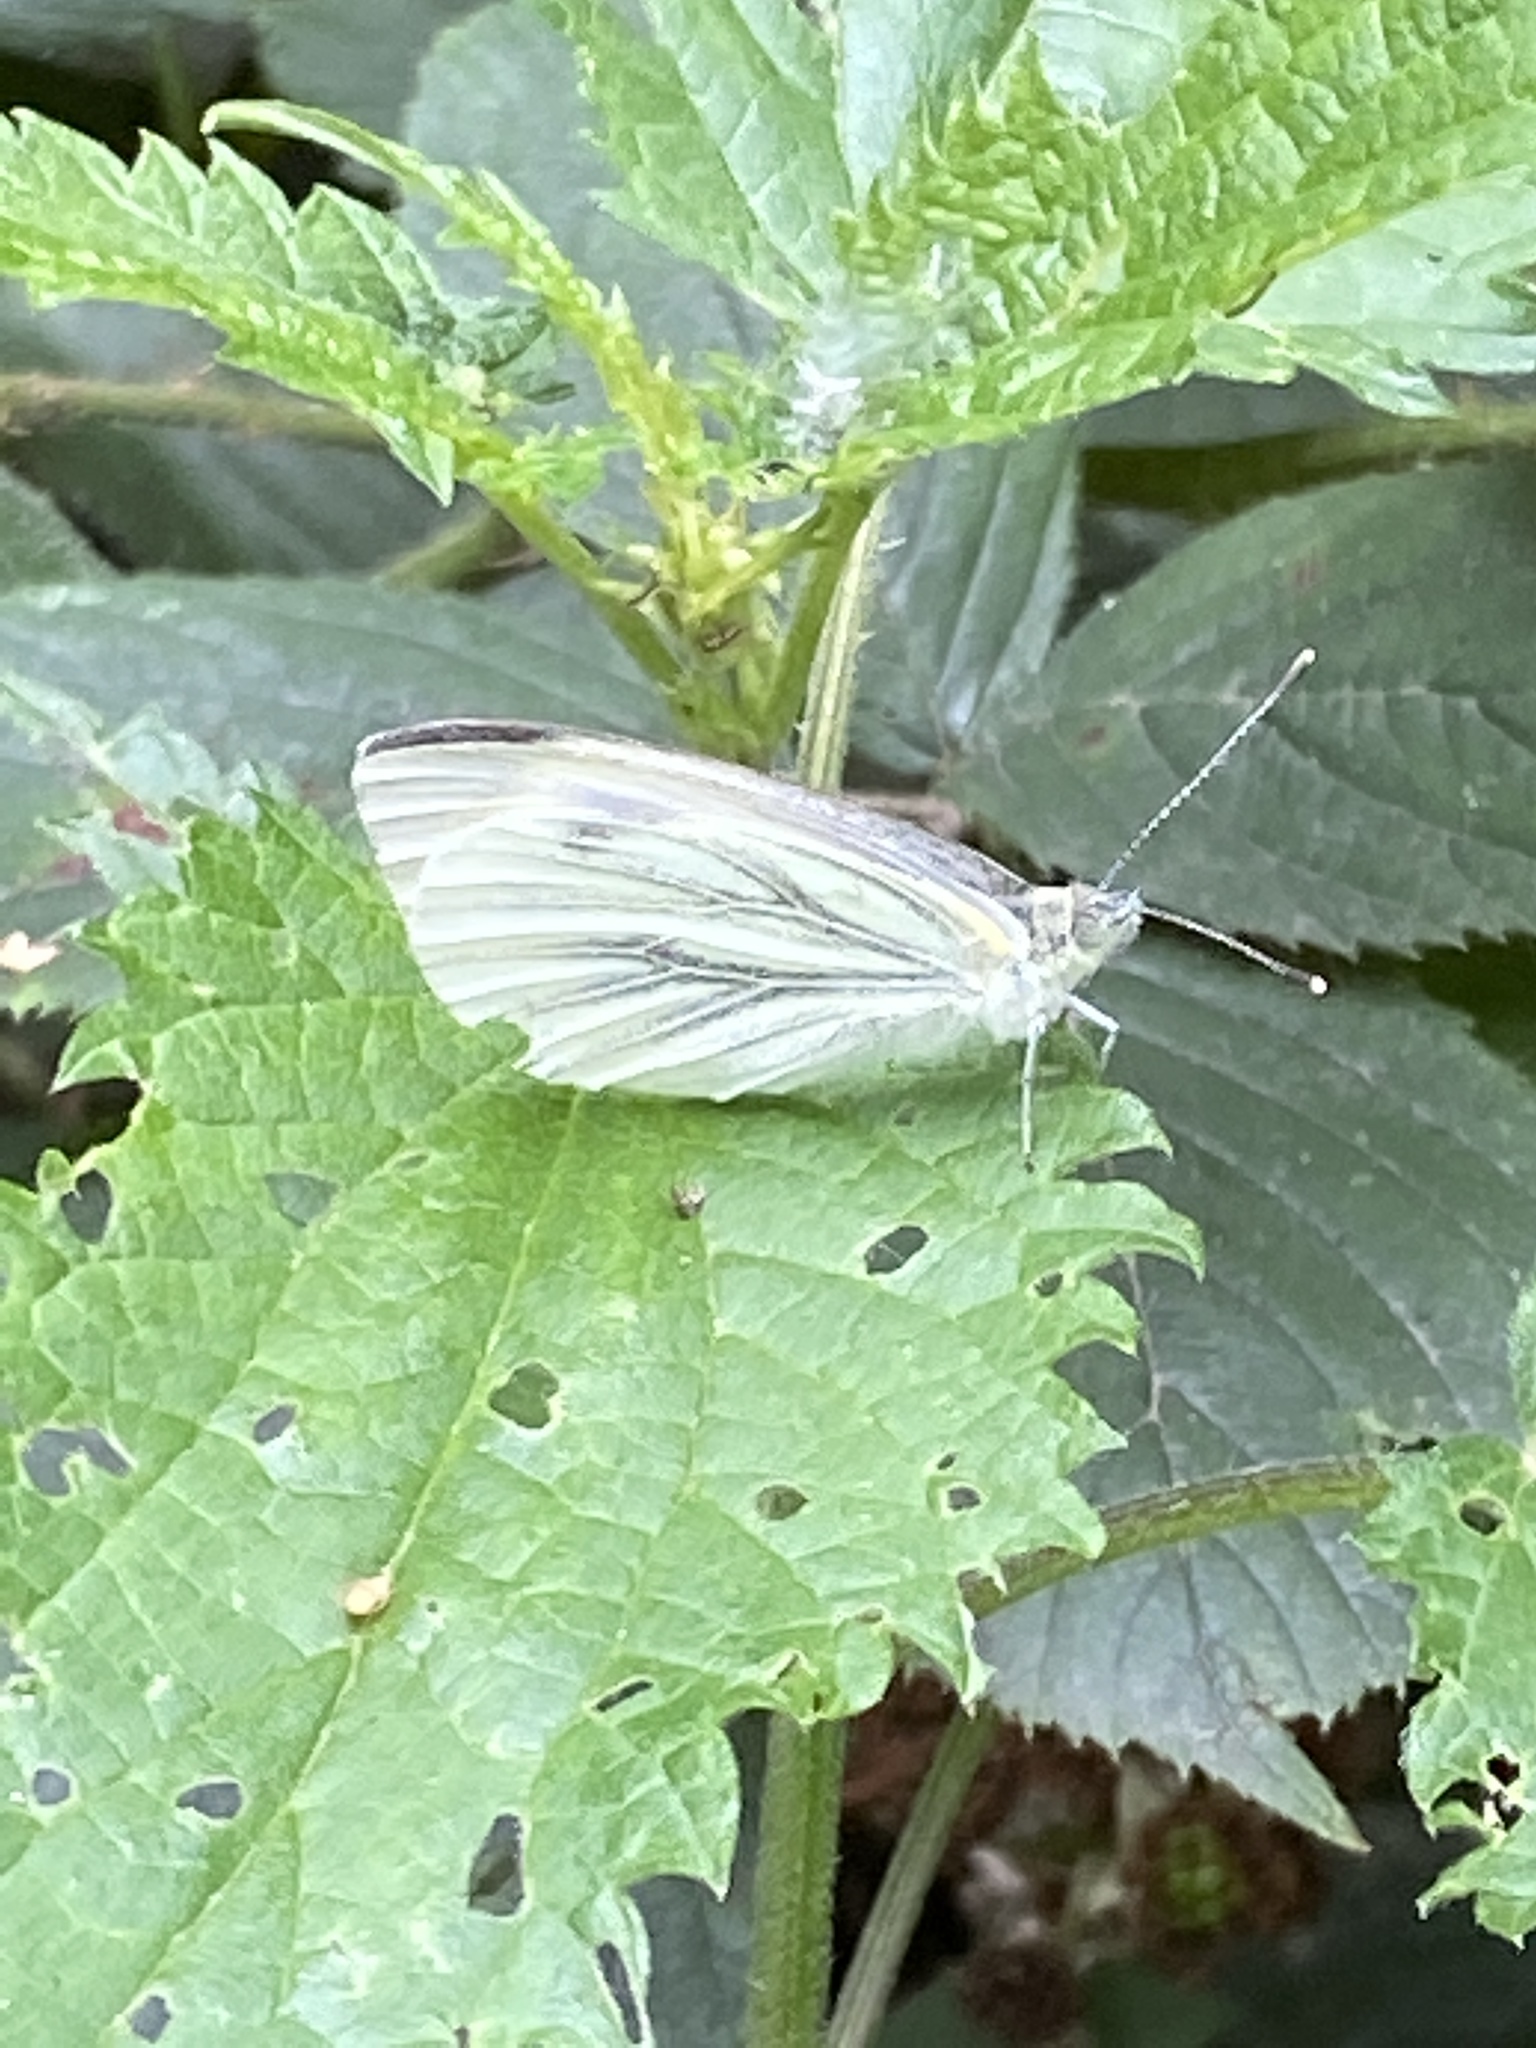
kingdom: Animalia
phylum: Arthropoda
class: Insecta
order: Lepidoptera
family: Pieridae
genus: Pieris
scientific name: Pieris napi
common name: Green-veined white
